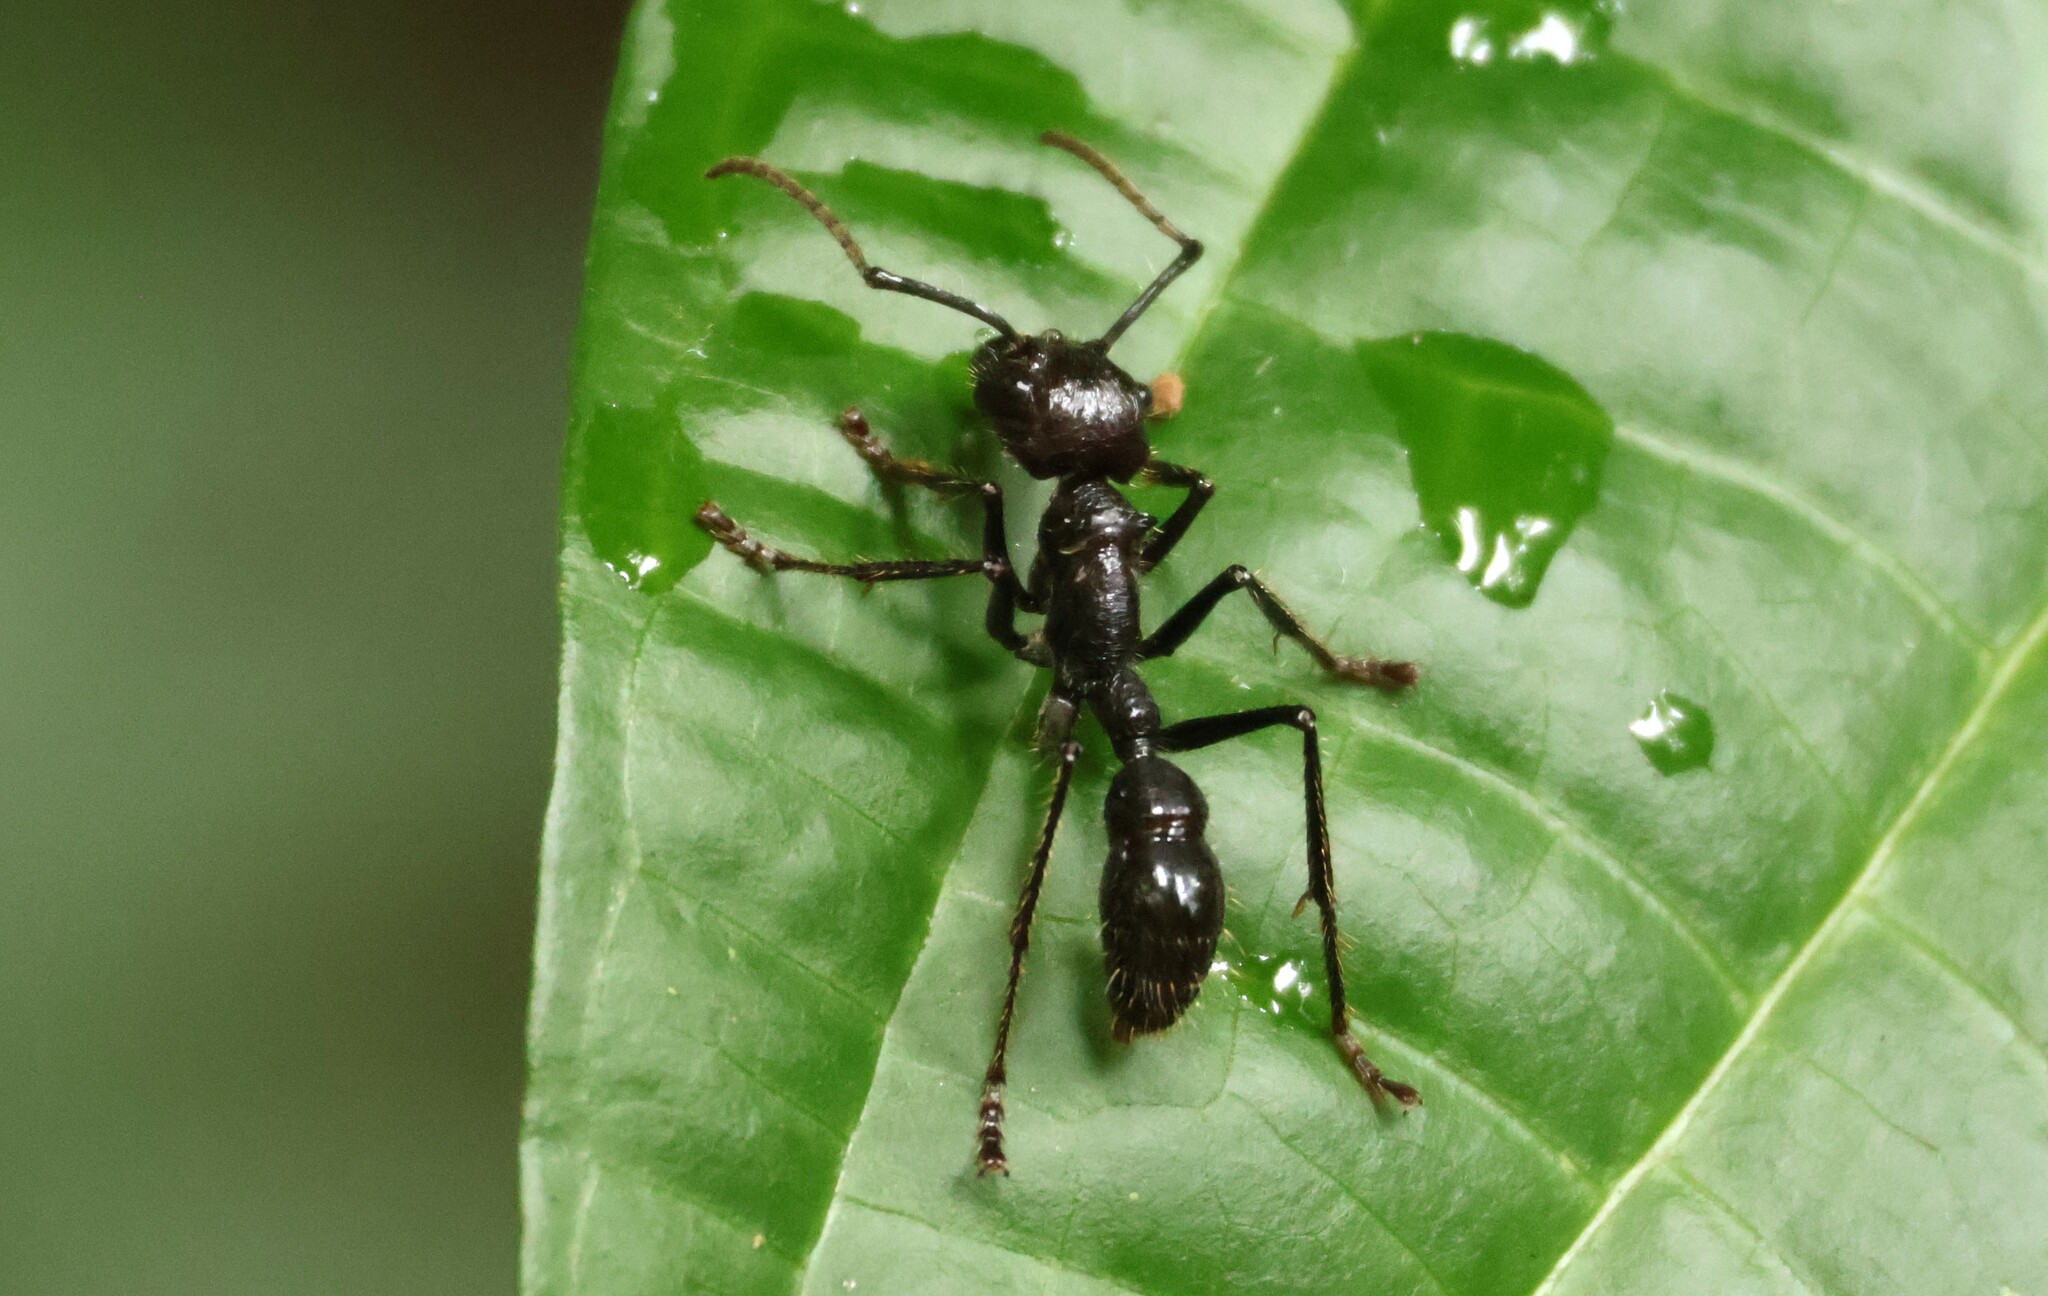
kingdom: Animalia
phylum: Arthropoda
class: Insecta
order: Hymenoptera
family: Formicidae
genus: Paraponera
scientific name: Paraponera clavata
